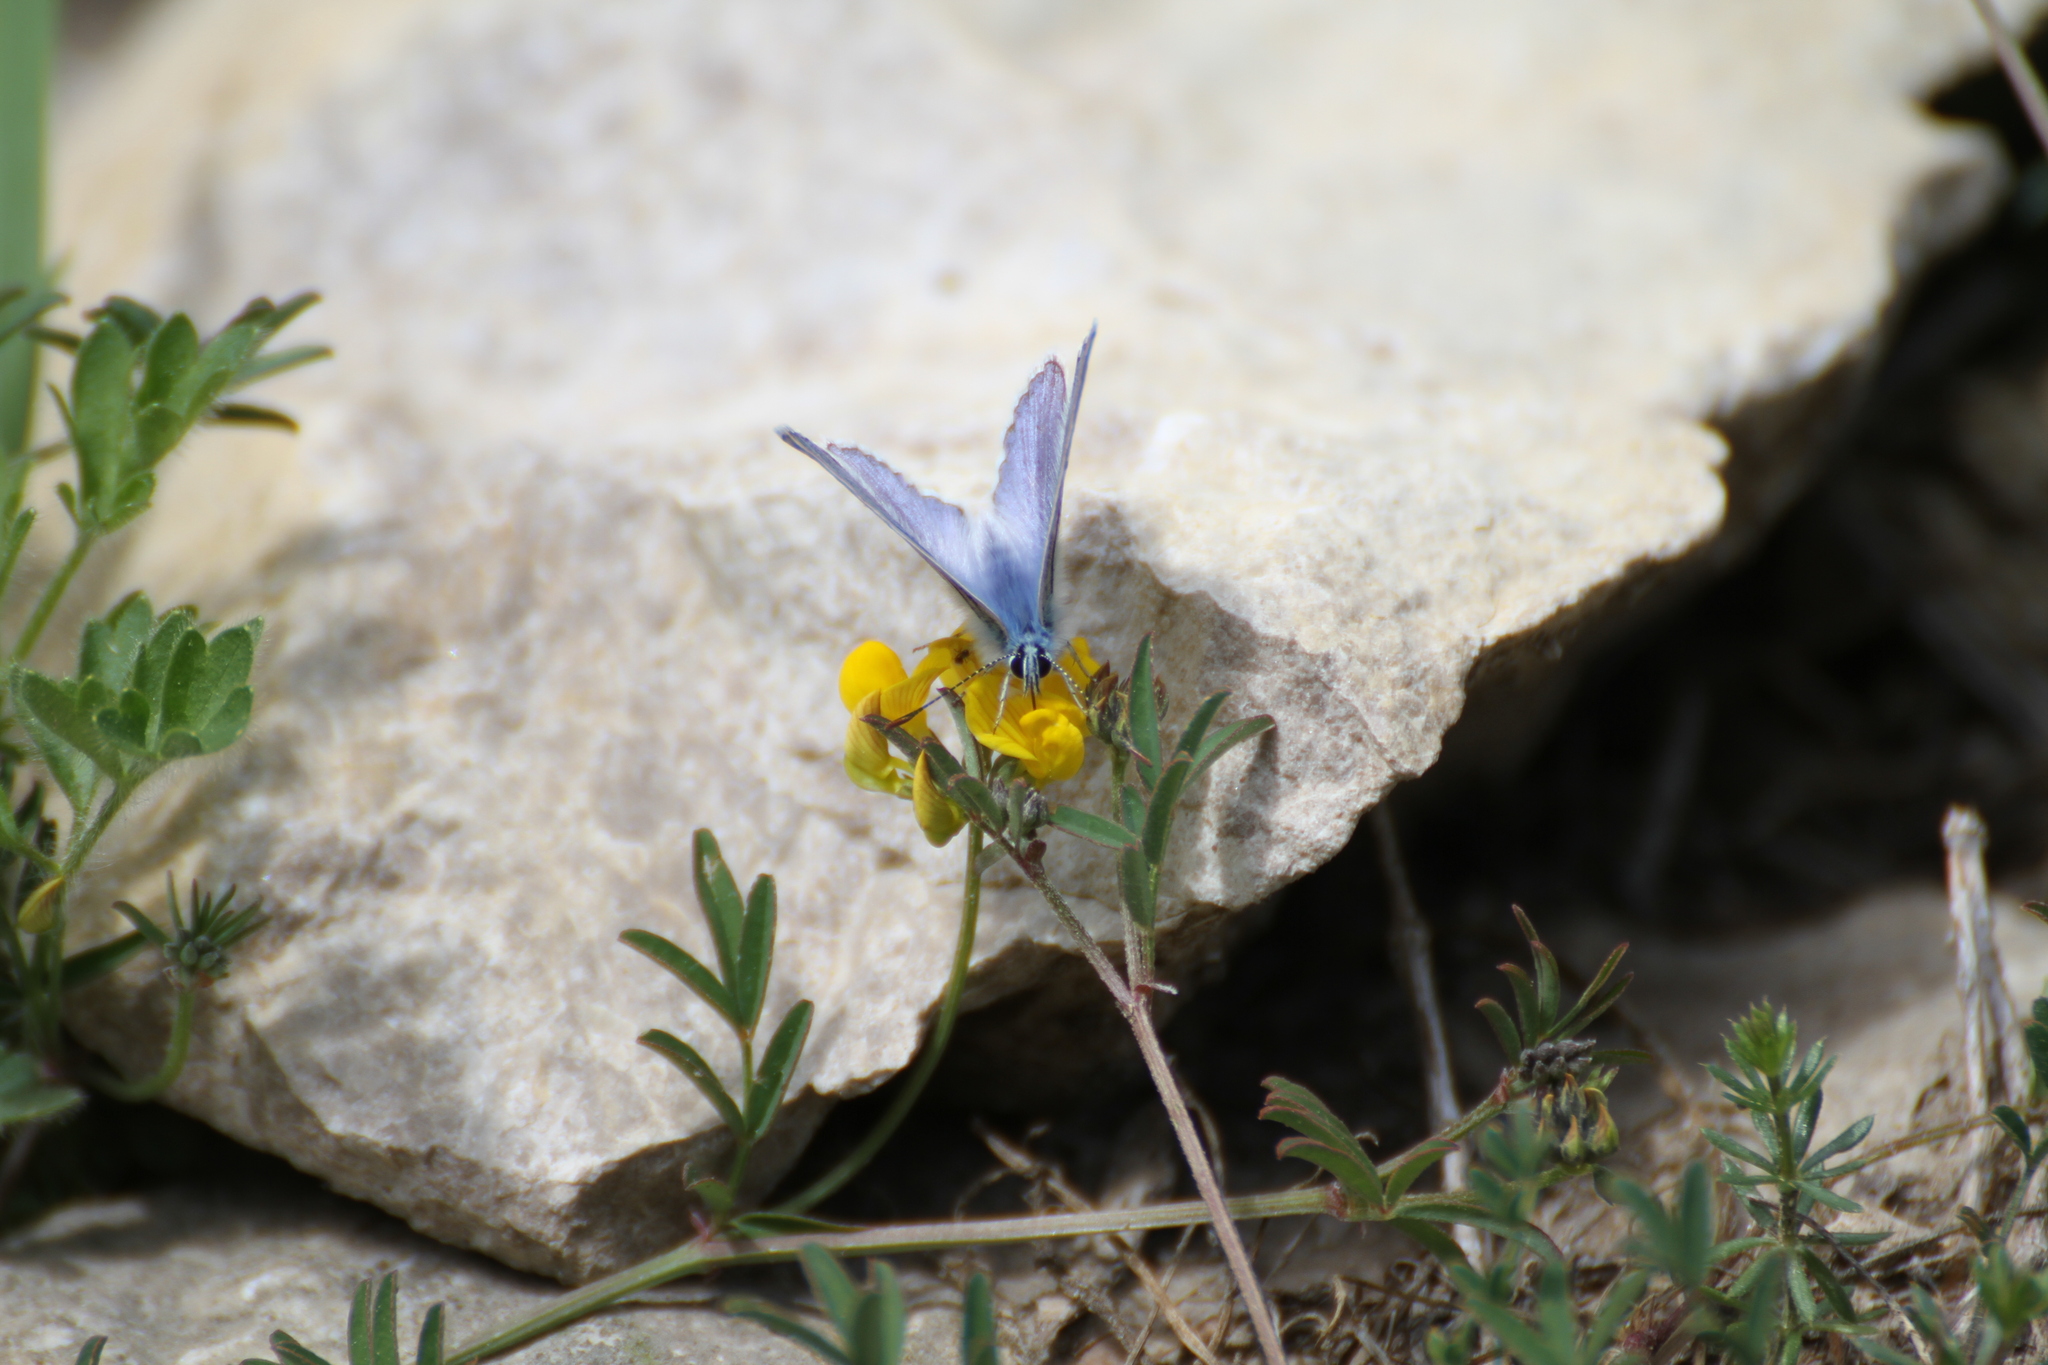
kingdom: Animalia
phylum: Arthropoda
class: Insecta
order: Lepidoptera
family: Lycaenidae
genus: Polyommatus
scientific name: Polyommatus icarus
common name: Common blue
